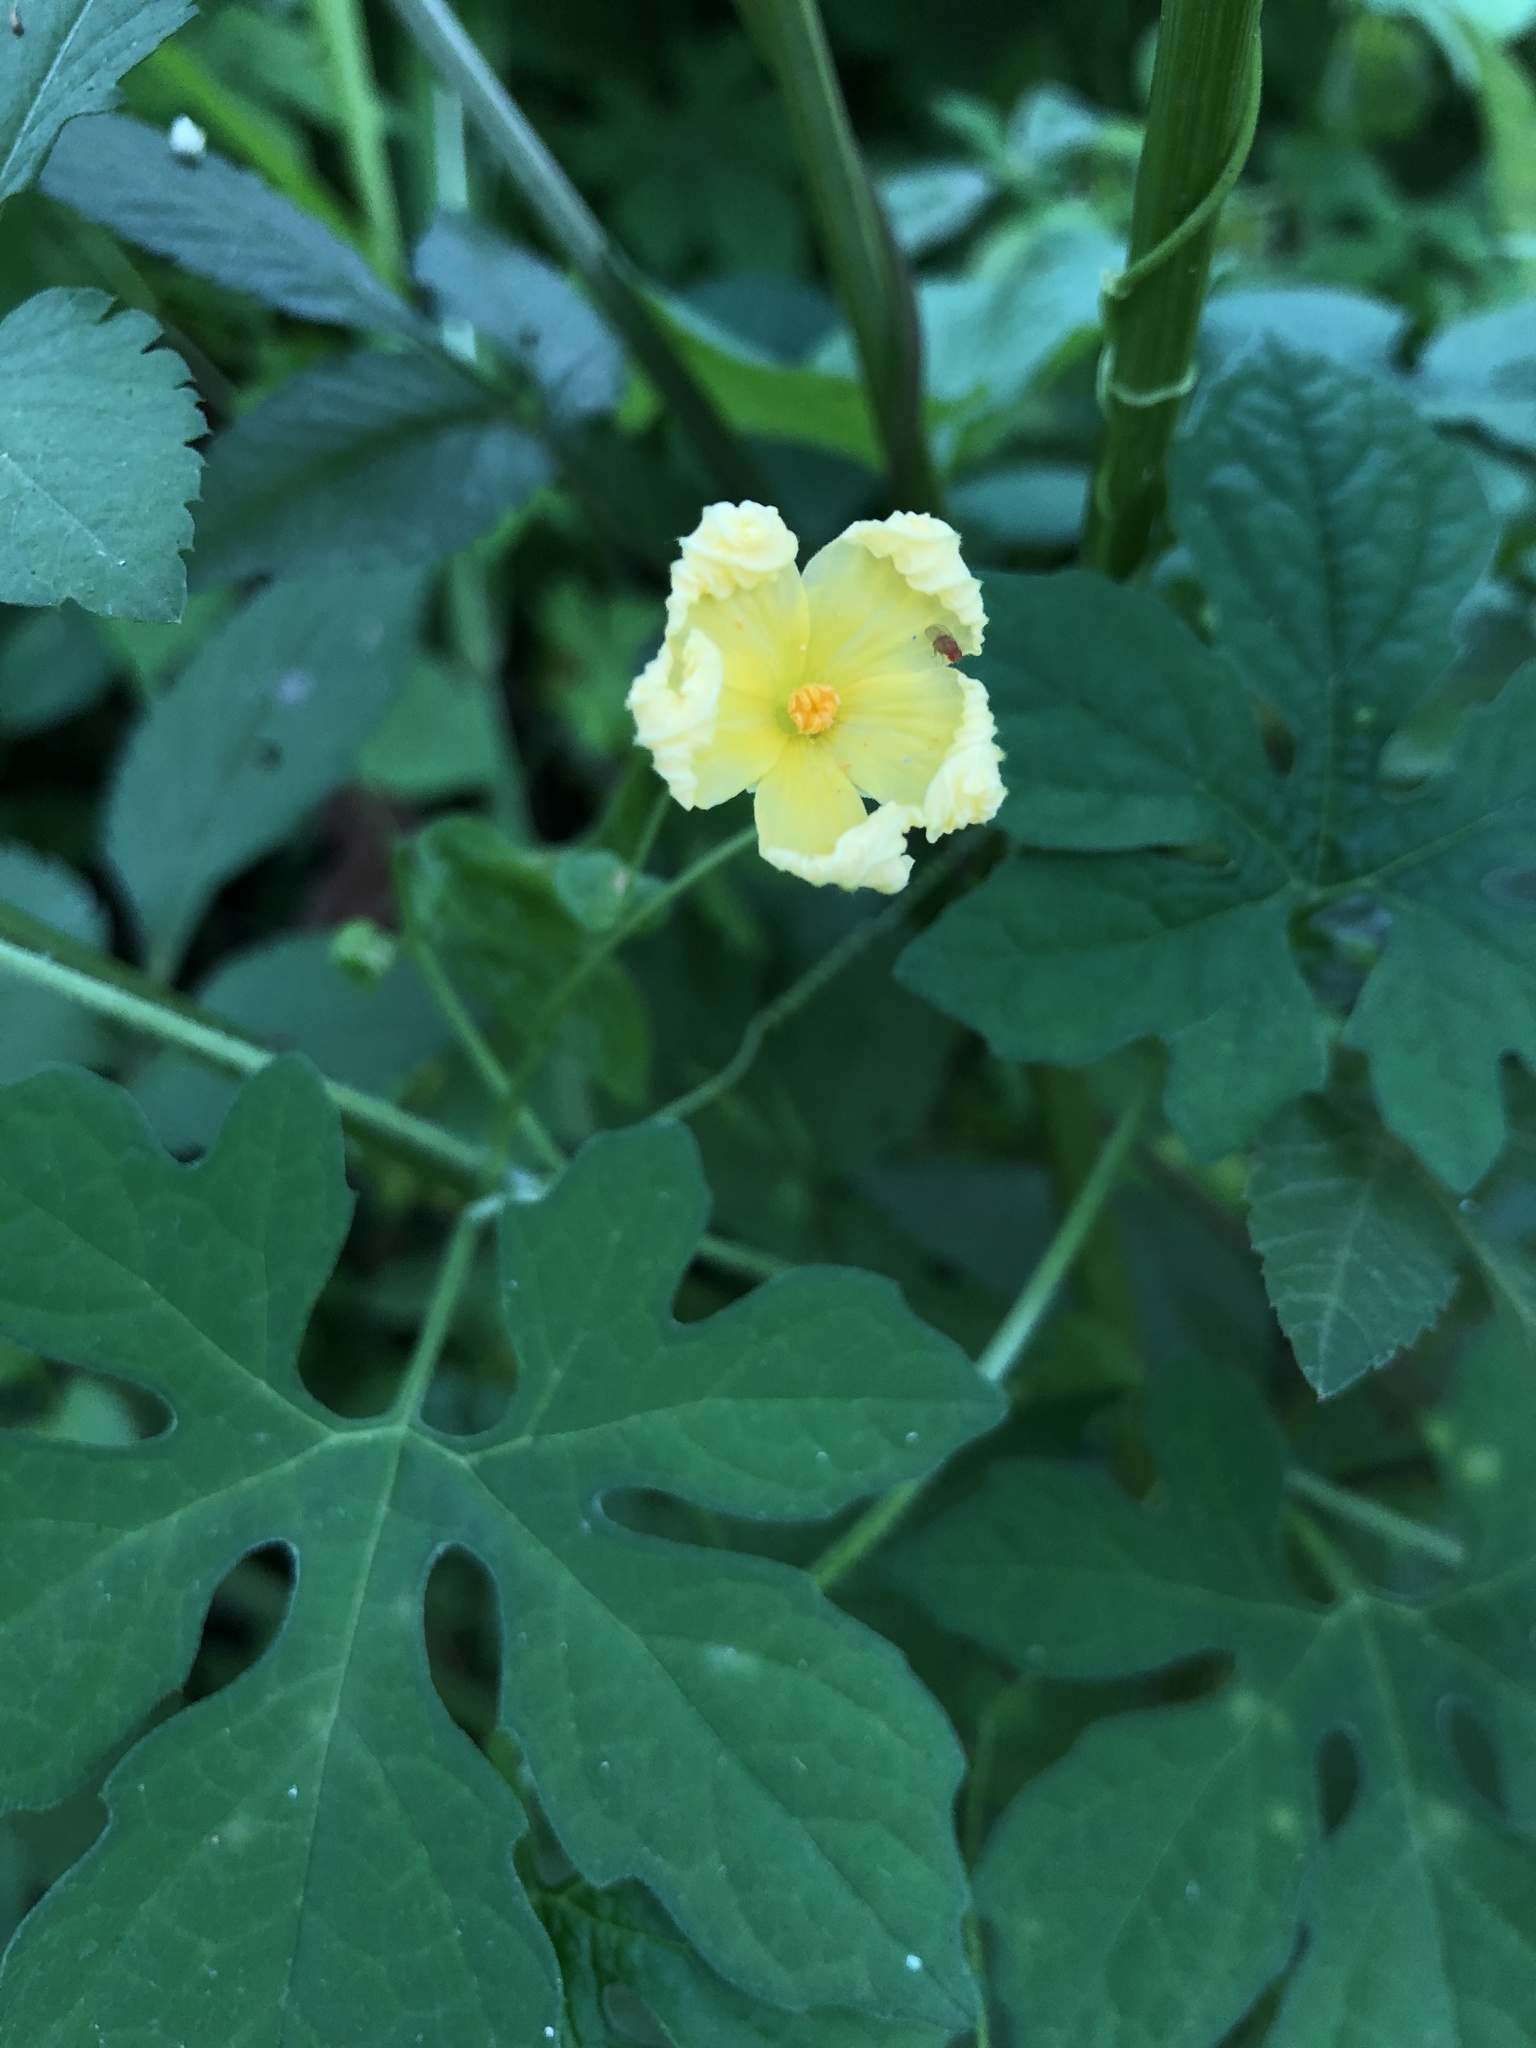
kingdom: Plantae
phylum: Tracheophyta
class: Magnoliopsida
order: Cucurbitales
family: Cucurbitaceae
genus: Momordica
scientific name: Momordica charantia
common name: Balsampear
